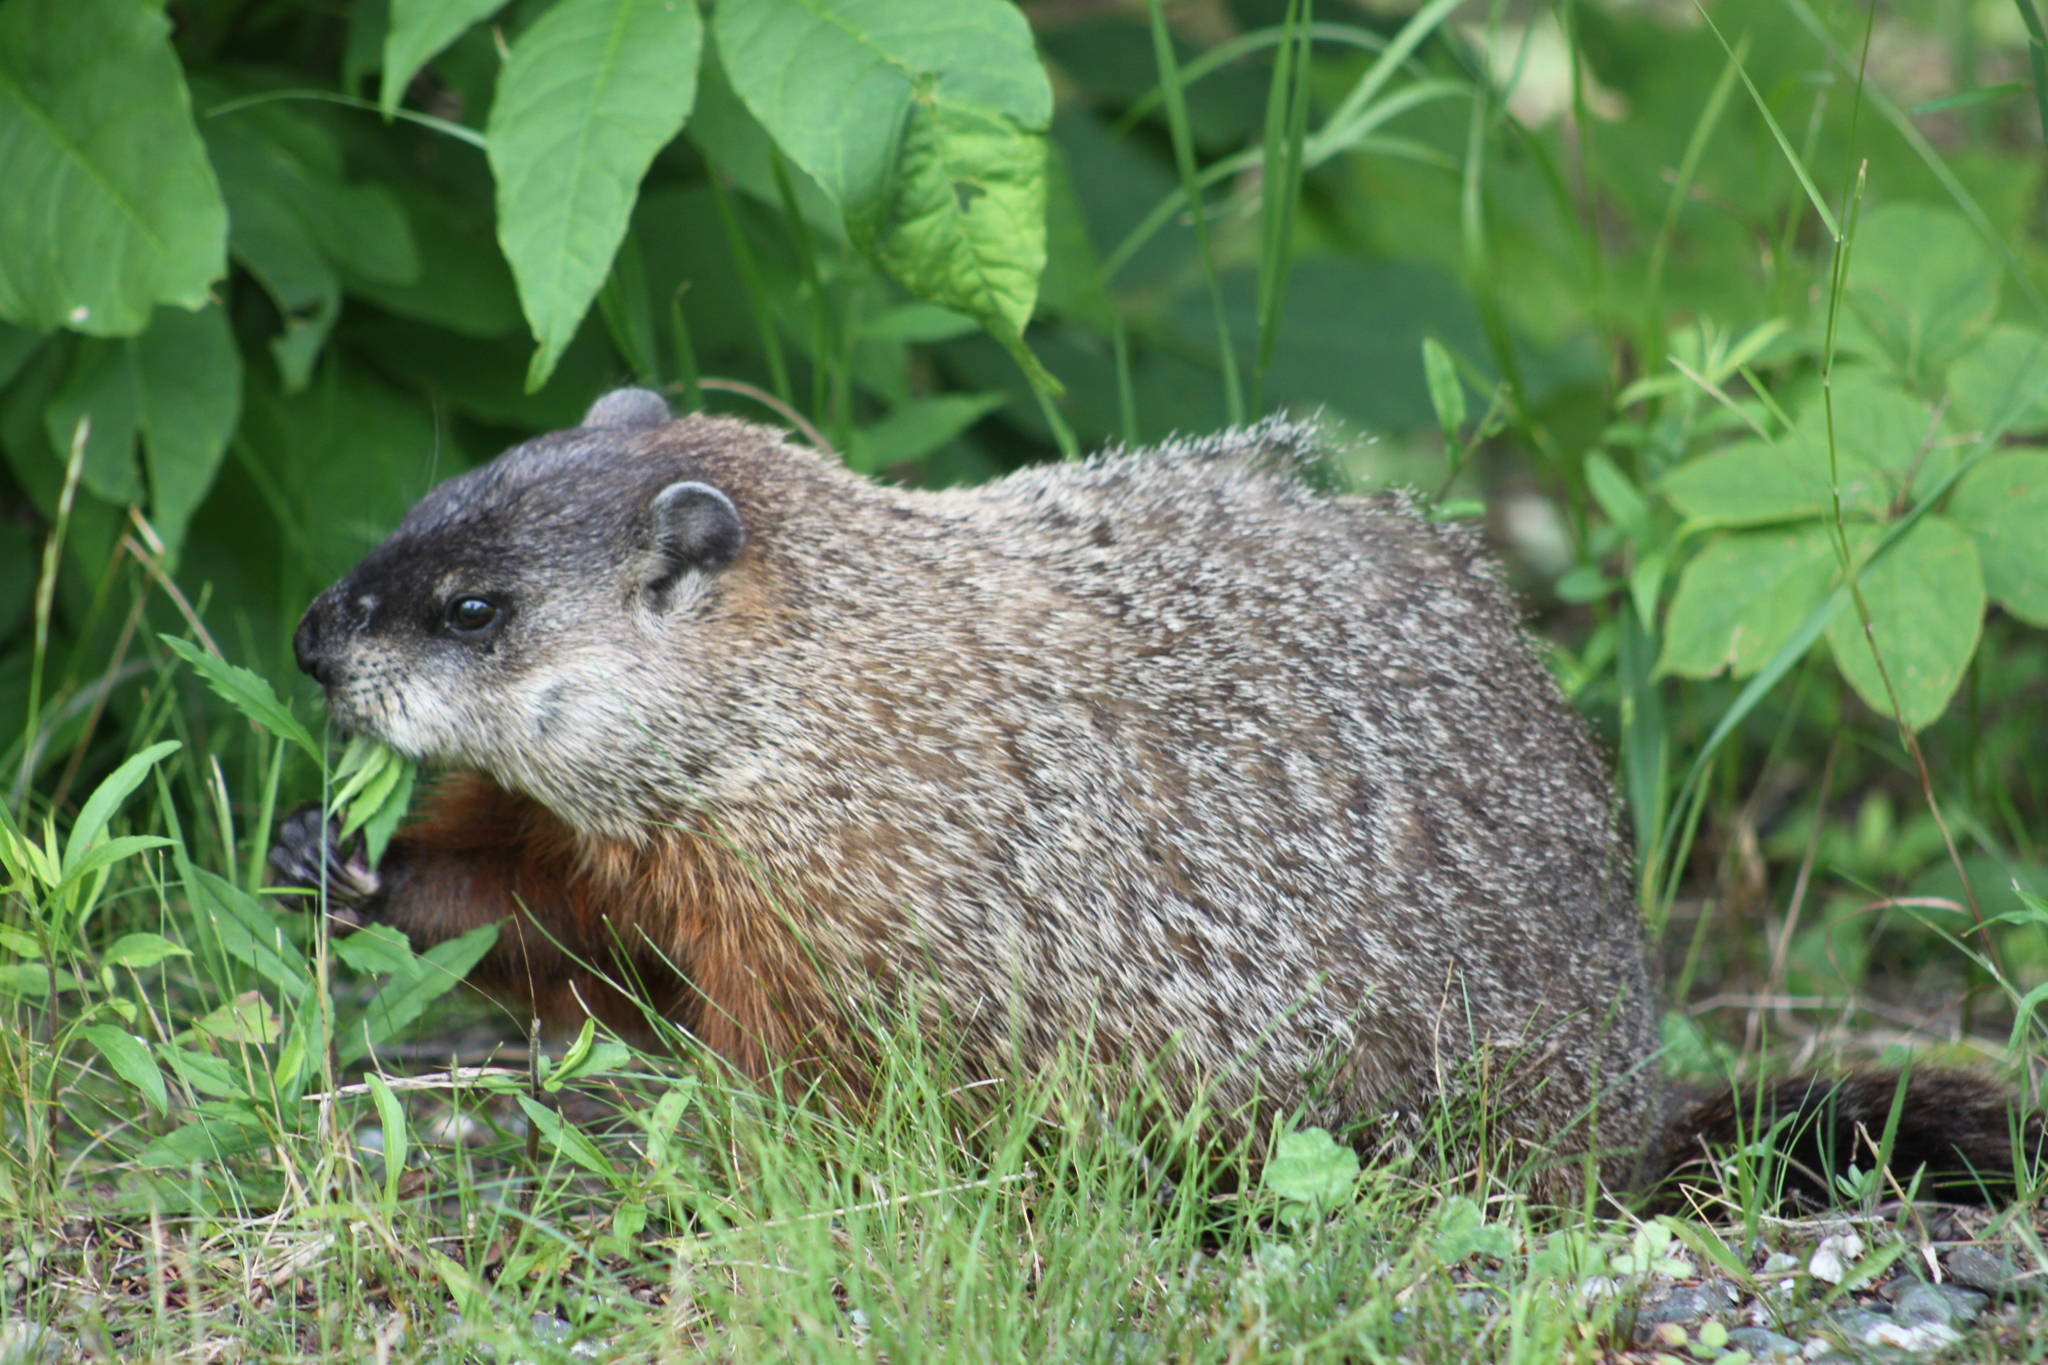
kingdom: Animalia
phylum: Chordata
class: Mammalia
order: Rodentia
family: Sciuridae
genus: Marmota
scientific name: Marmota monax
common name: Groundhog
